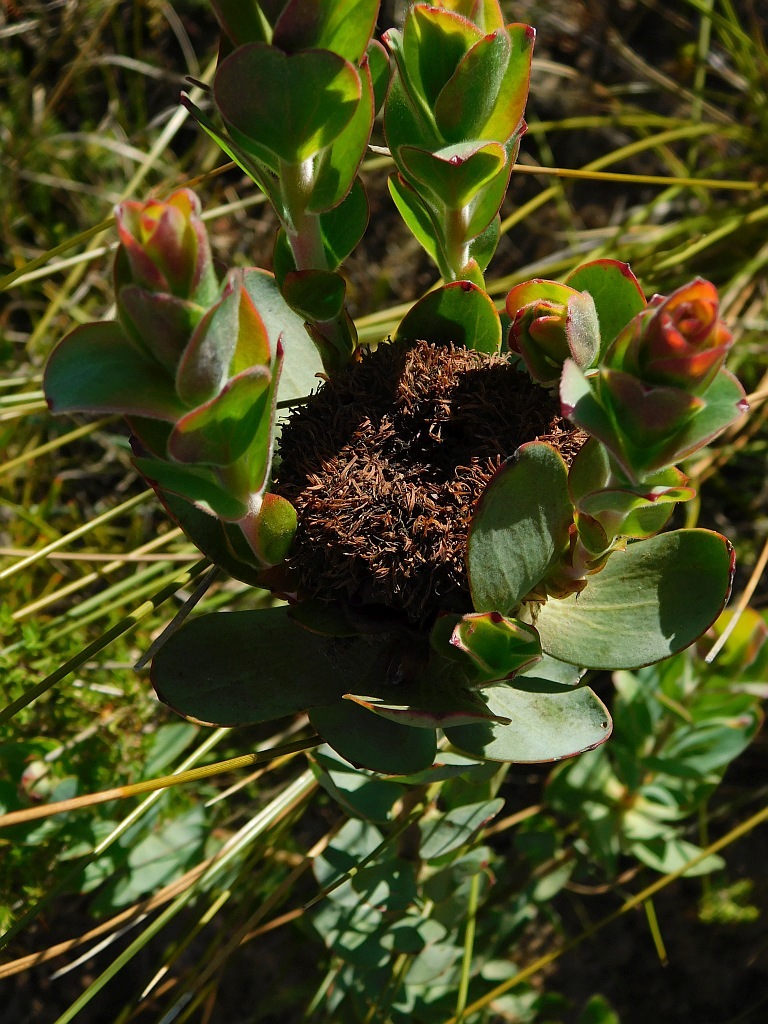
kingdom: Plantae
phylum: Tracheophyta
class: Magnoliopsida
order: Proteales
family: Proteaceae
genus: Leucadendron
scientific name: Leucadendron elimense
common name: Elim conebush
